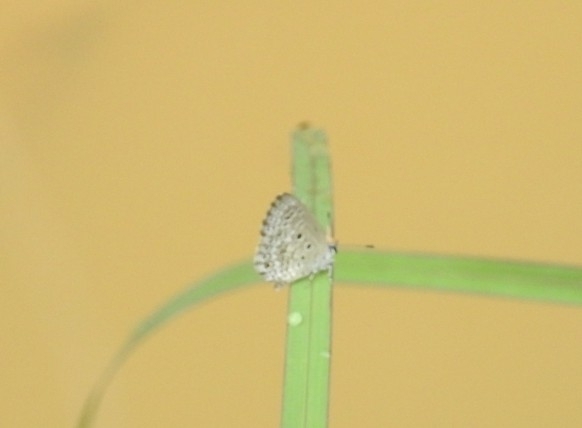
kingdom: Animalia
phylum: Arthropoda
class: Insecta
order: Lepidoptera
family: Lycaenidae
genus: Chilades
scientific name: Chilades laius
